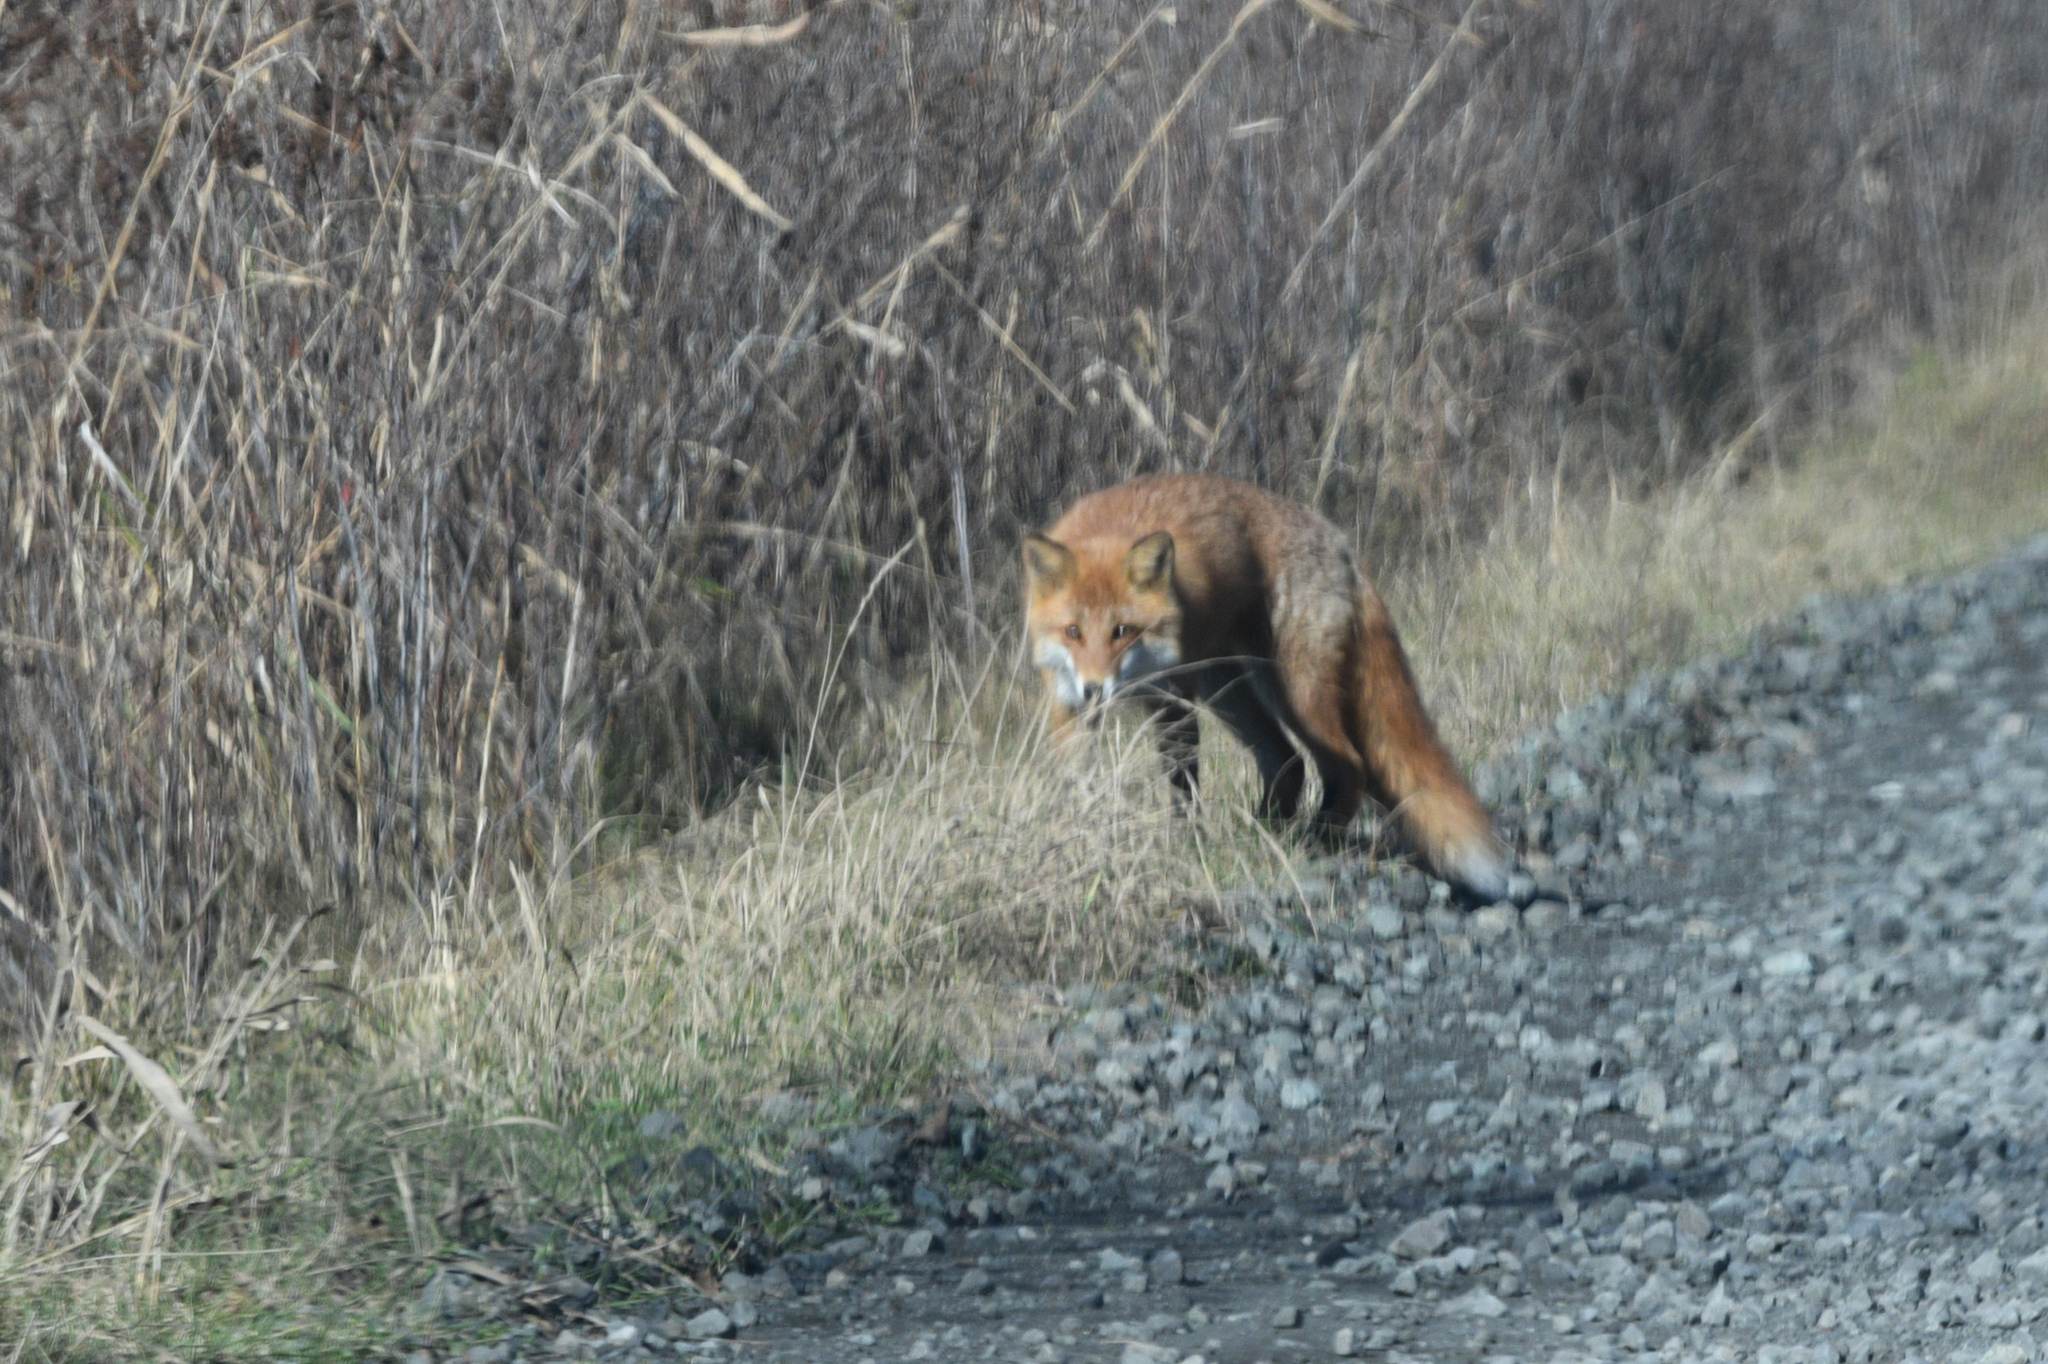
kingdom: Animalia
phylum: Chordata
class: Mammalia
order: Carnivora
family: Canidae
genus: Vulpes
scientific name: Vulpes vulpes
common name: Red fox
